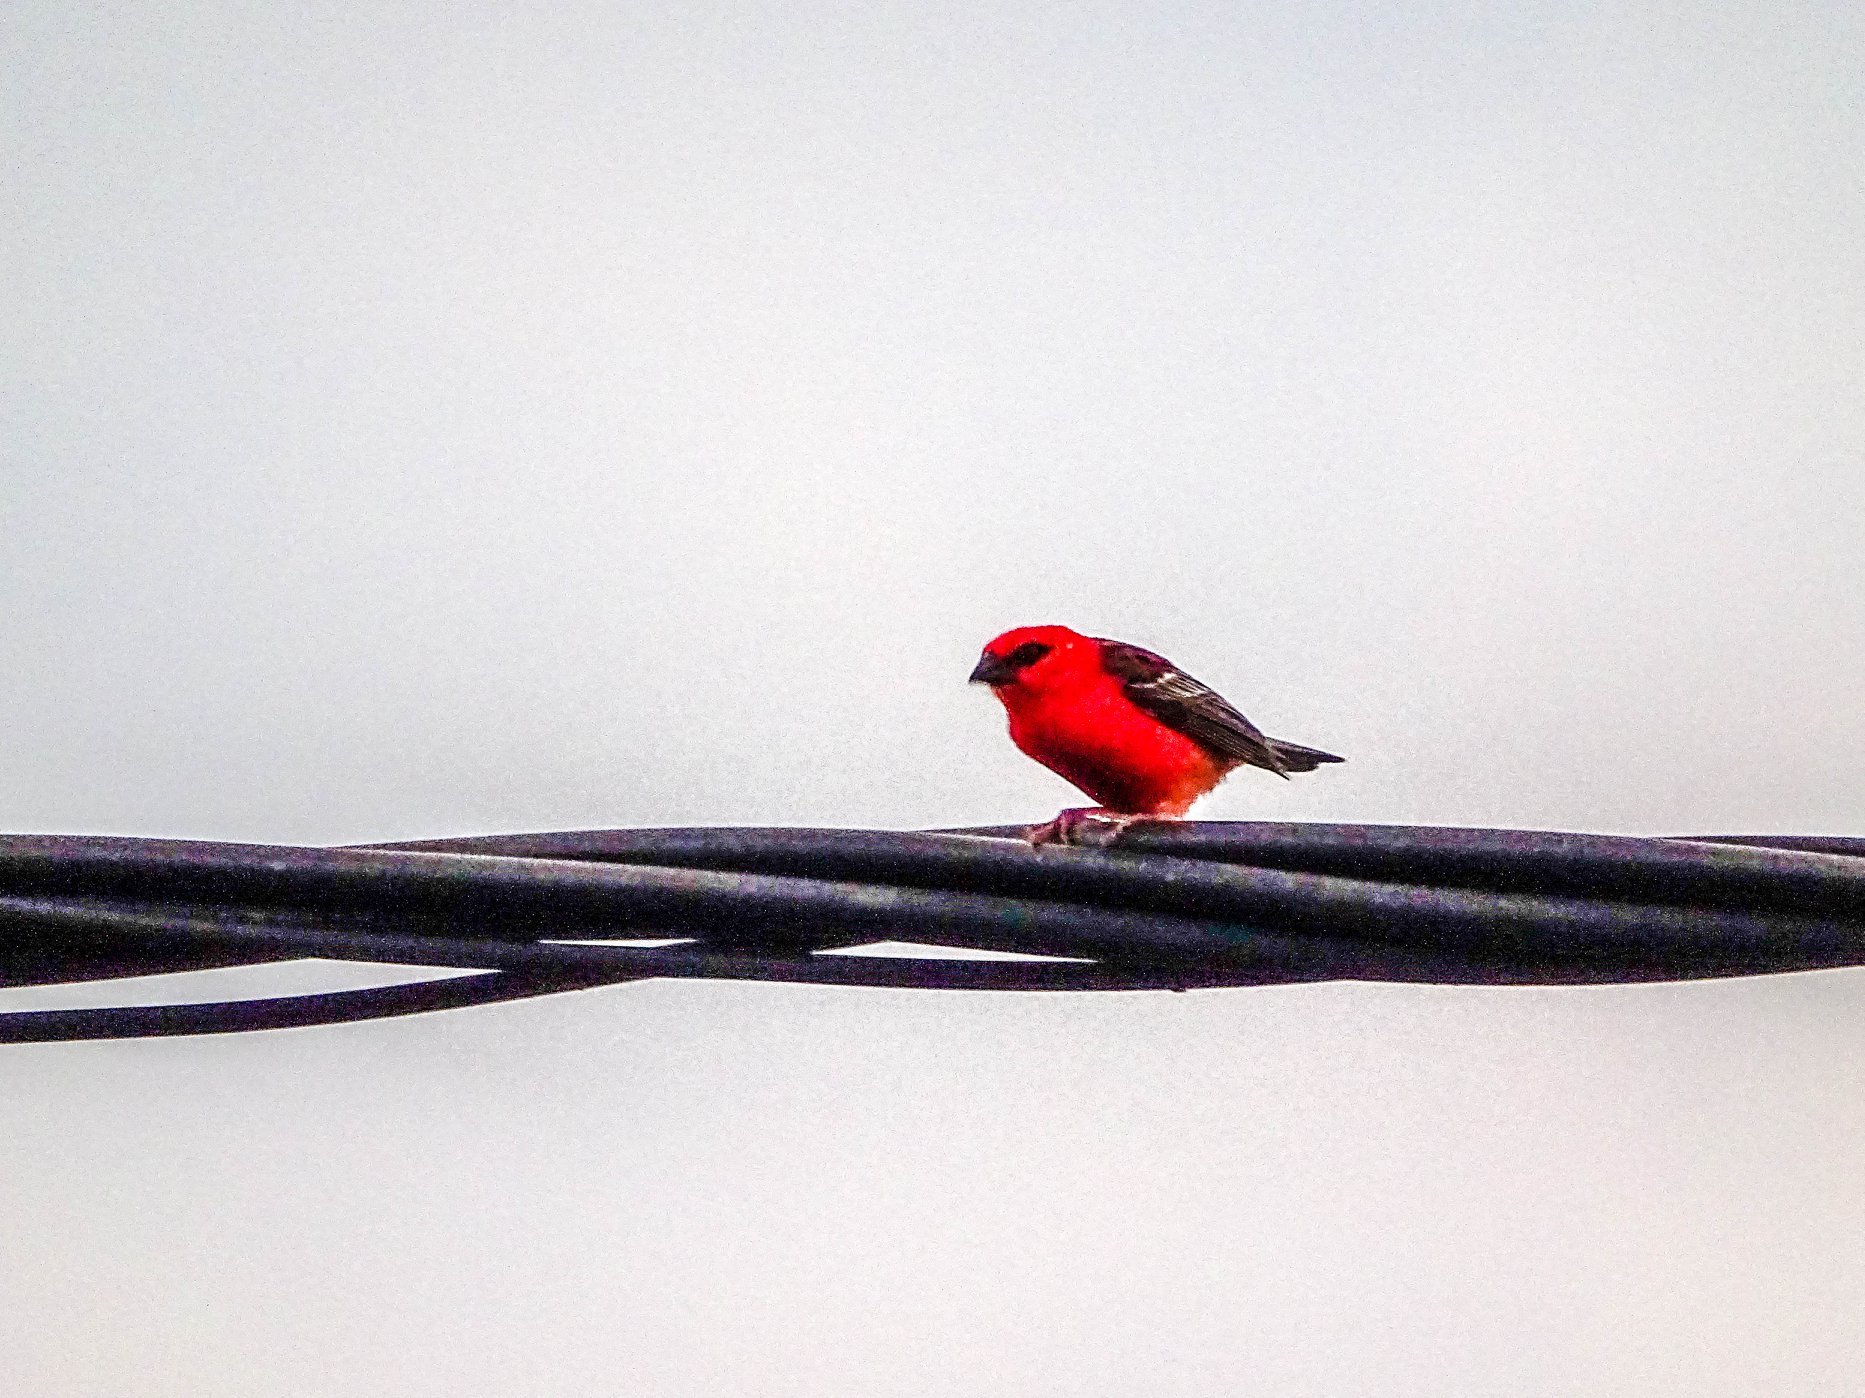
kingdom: Animalia
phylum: Chordata
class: Aves
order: Passeriformes
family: Ploceidae
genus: Foudia
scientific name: Foudia madagascariensis
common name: Red fody
